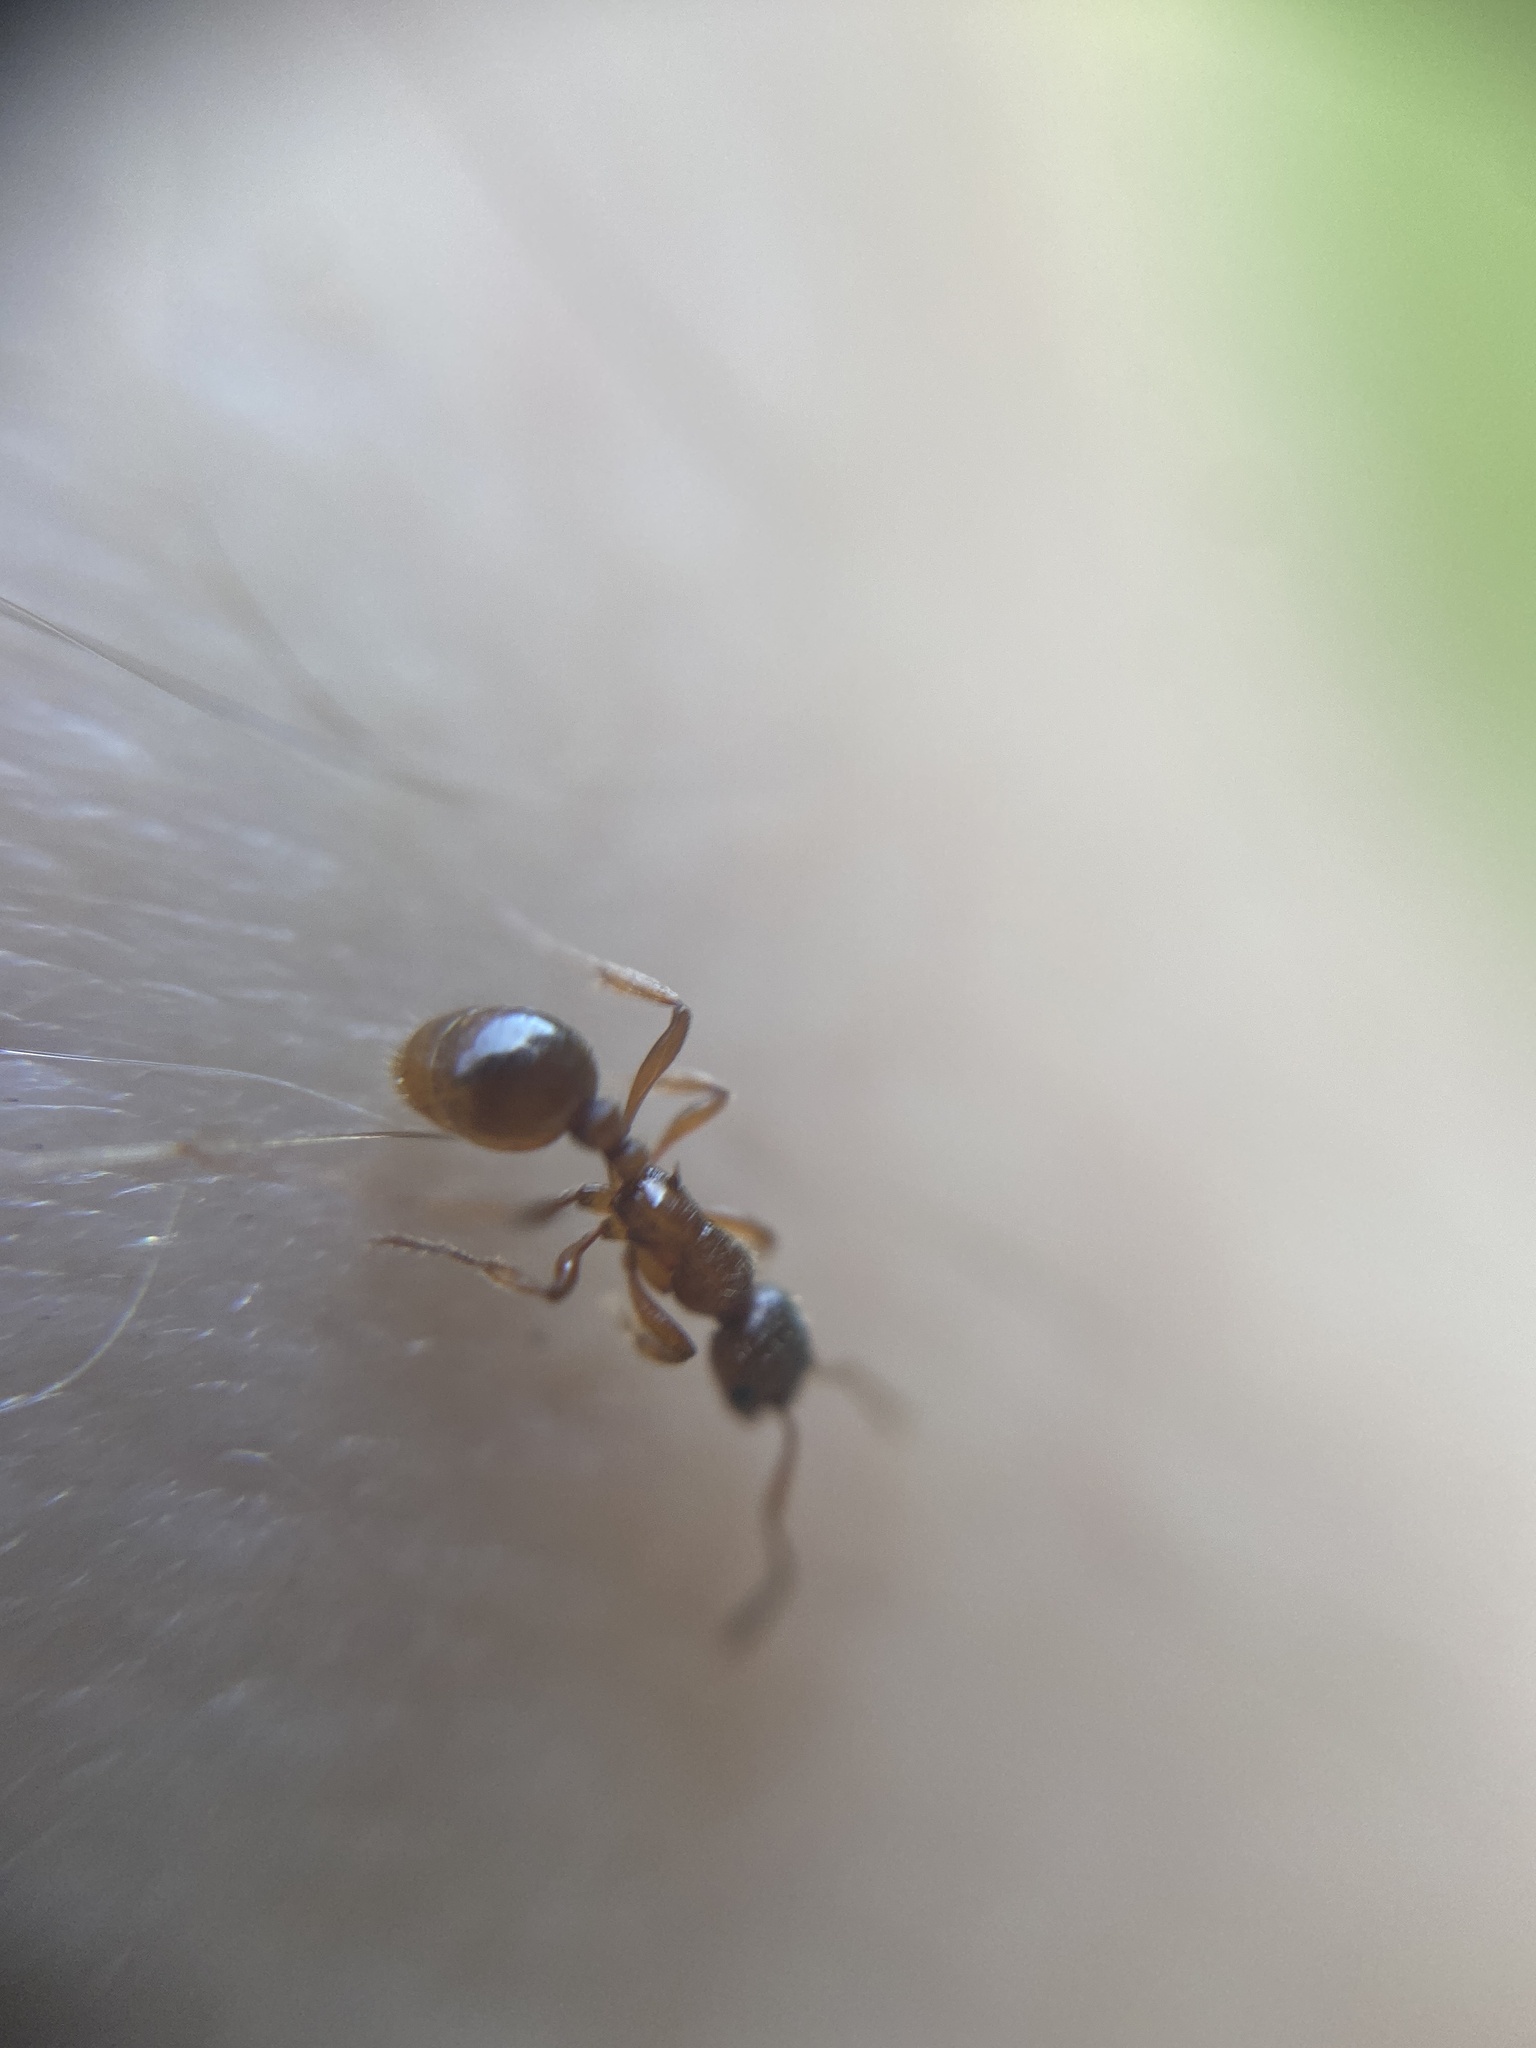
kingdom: Animalia
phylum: Arthropoda
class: Insecta
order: Hymenoptera
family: Formicidae
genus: Myrmica
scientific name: Myrmica
